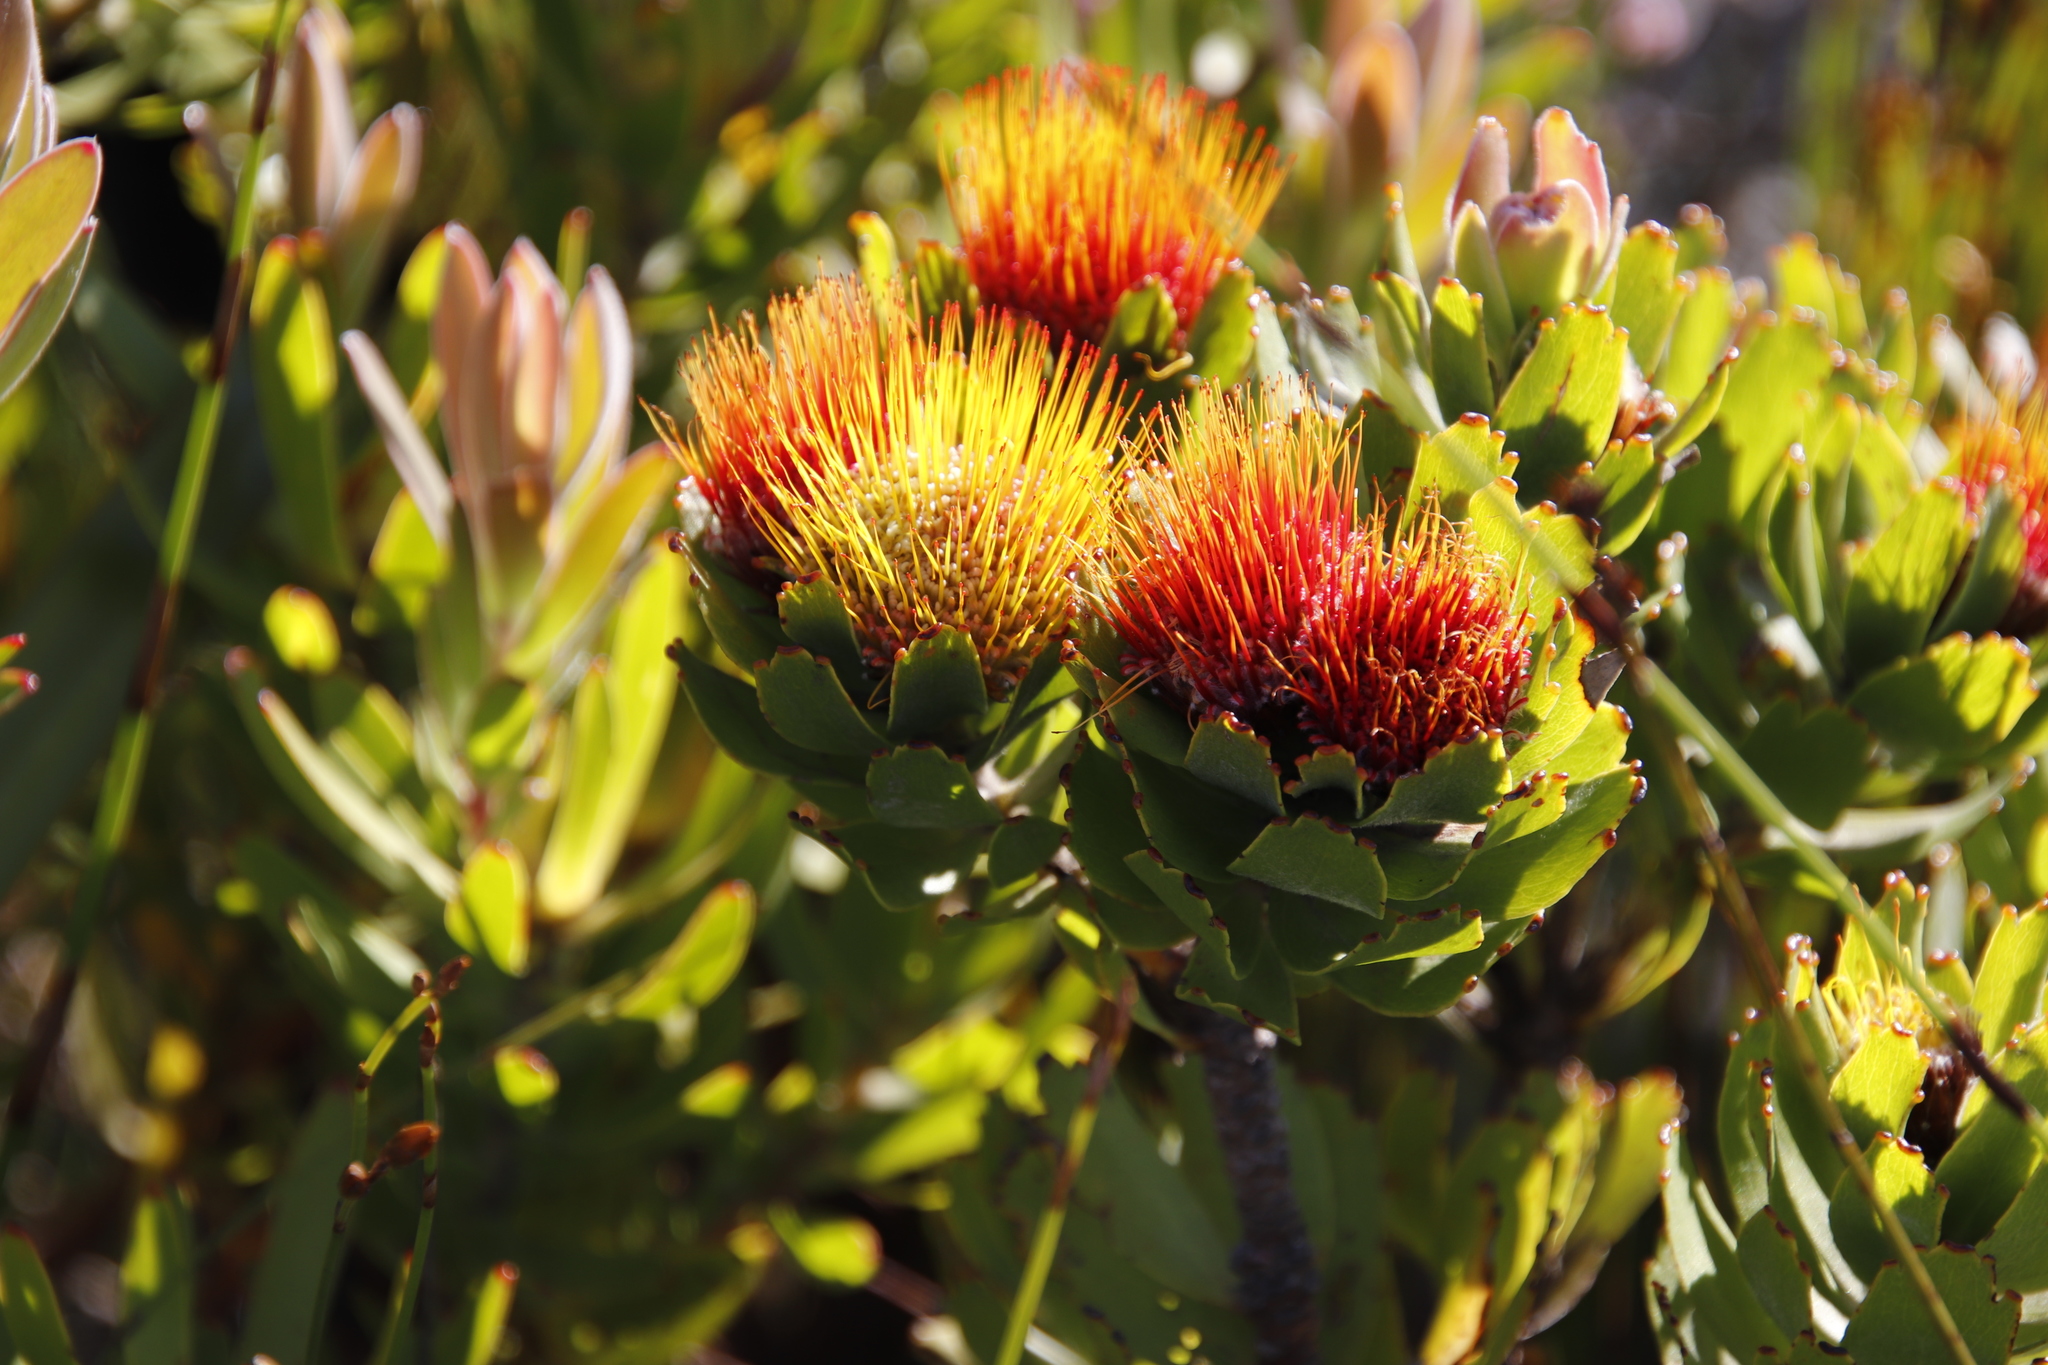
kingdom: Plantae
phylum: Tracheophyta
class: Magnoliopsida
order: Proteales
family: Proteaceae
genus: Leucospermum
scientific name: Leucospermum oleifolium
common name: Matches
